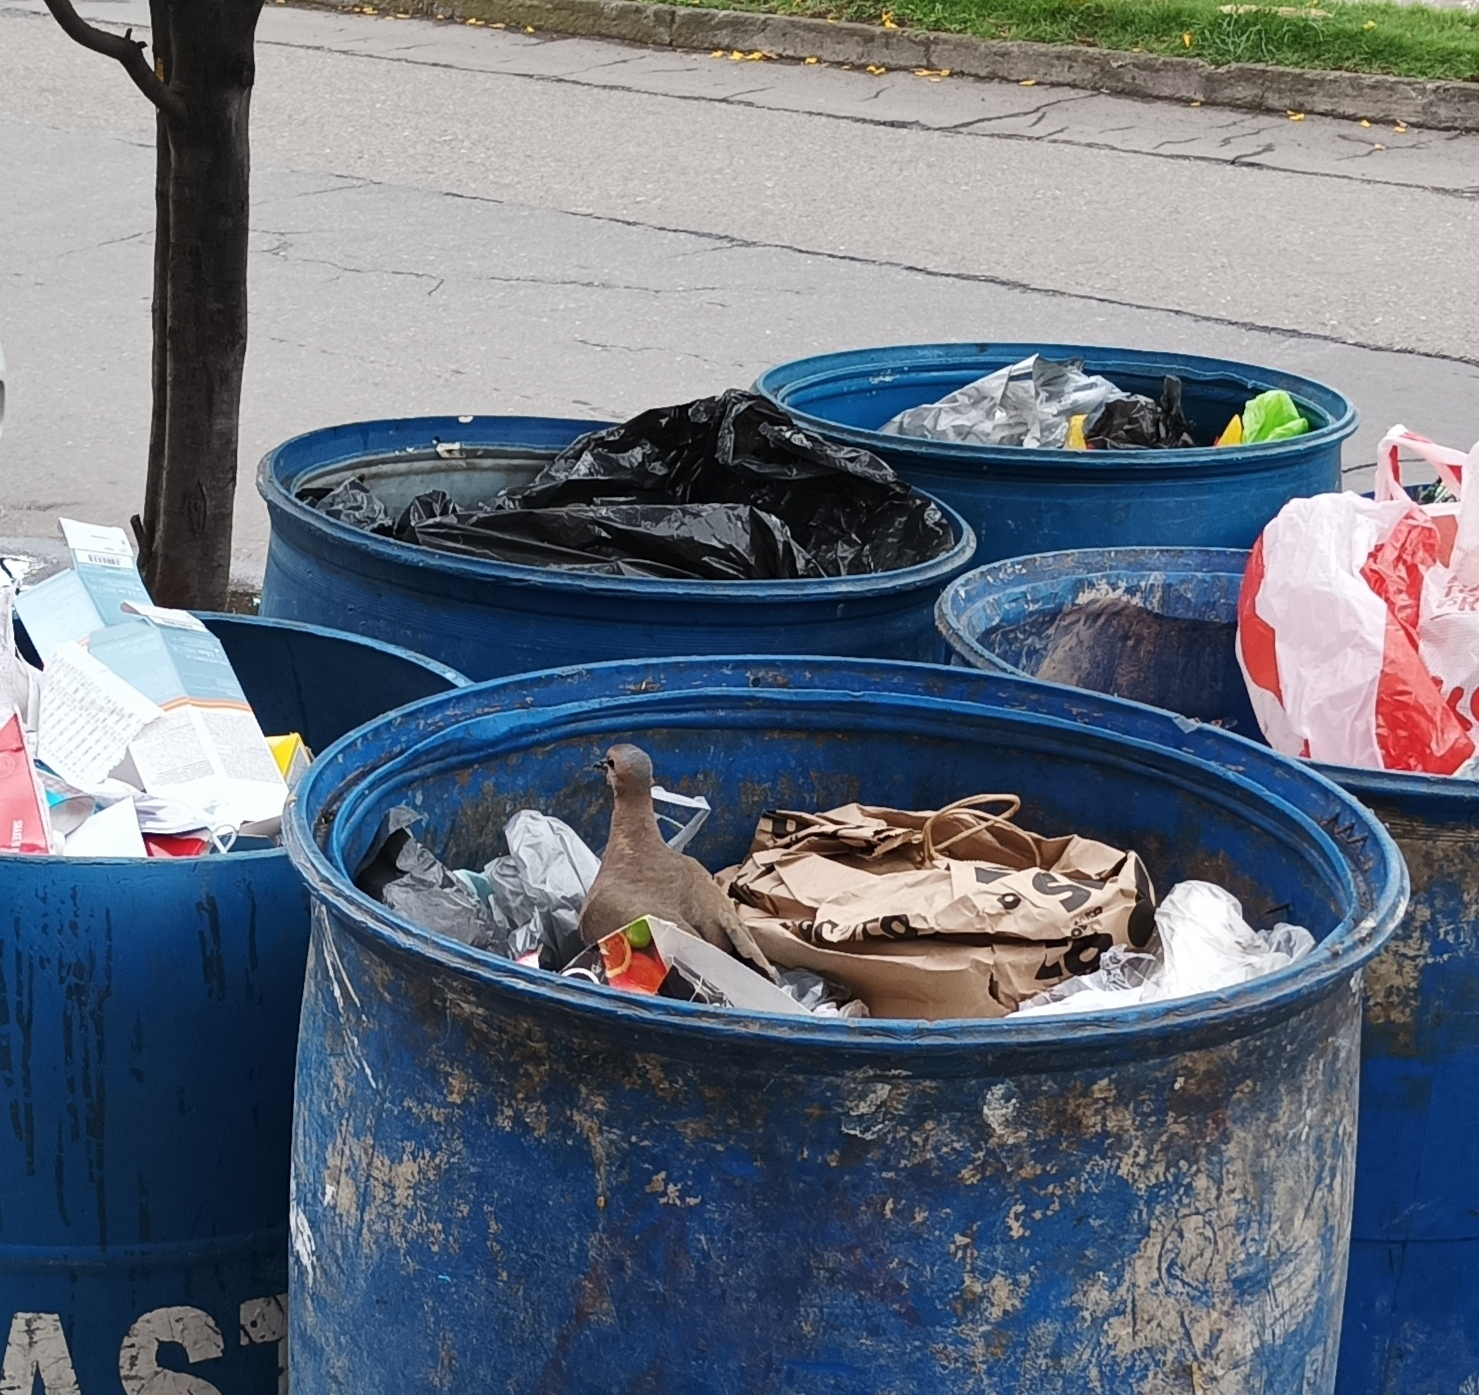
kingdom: Animalia
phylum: Chordata
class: Aves
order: Columbiformes
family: Columbidae
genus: Zenaida
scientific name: Zenaida auriculata
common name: Eared dove
